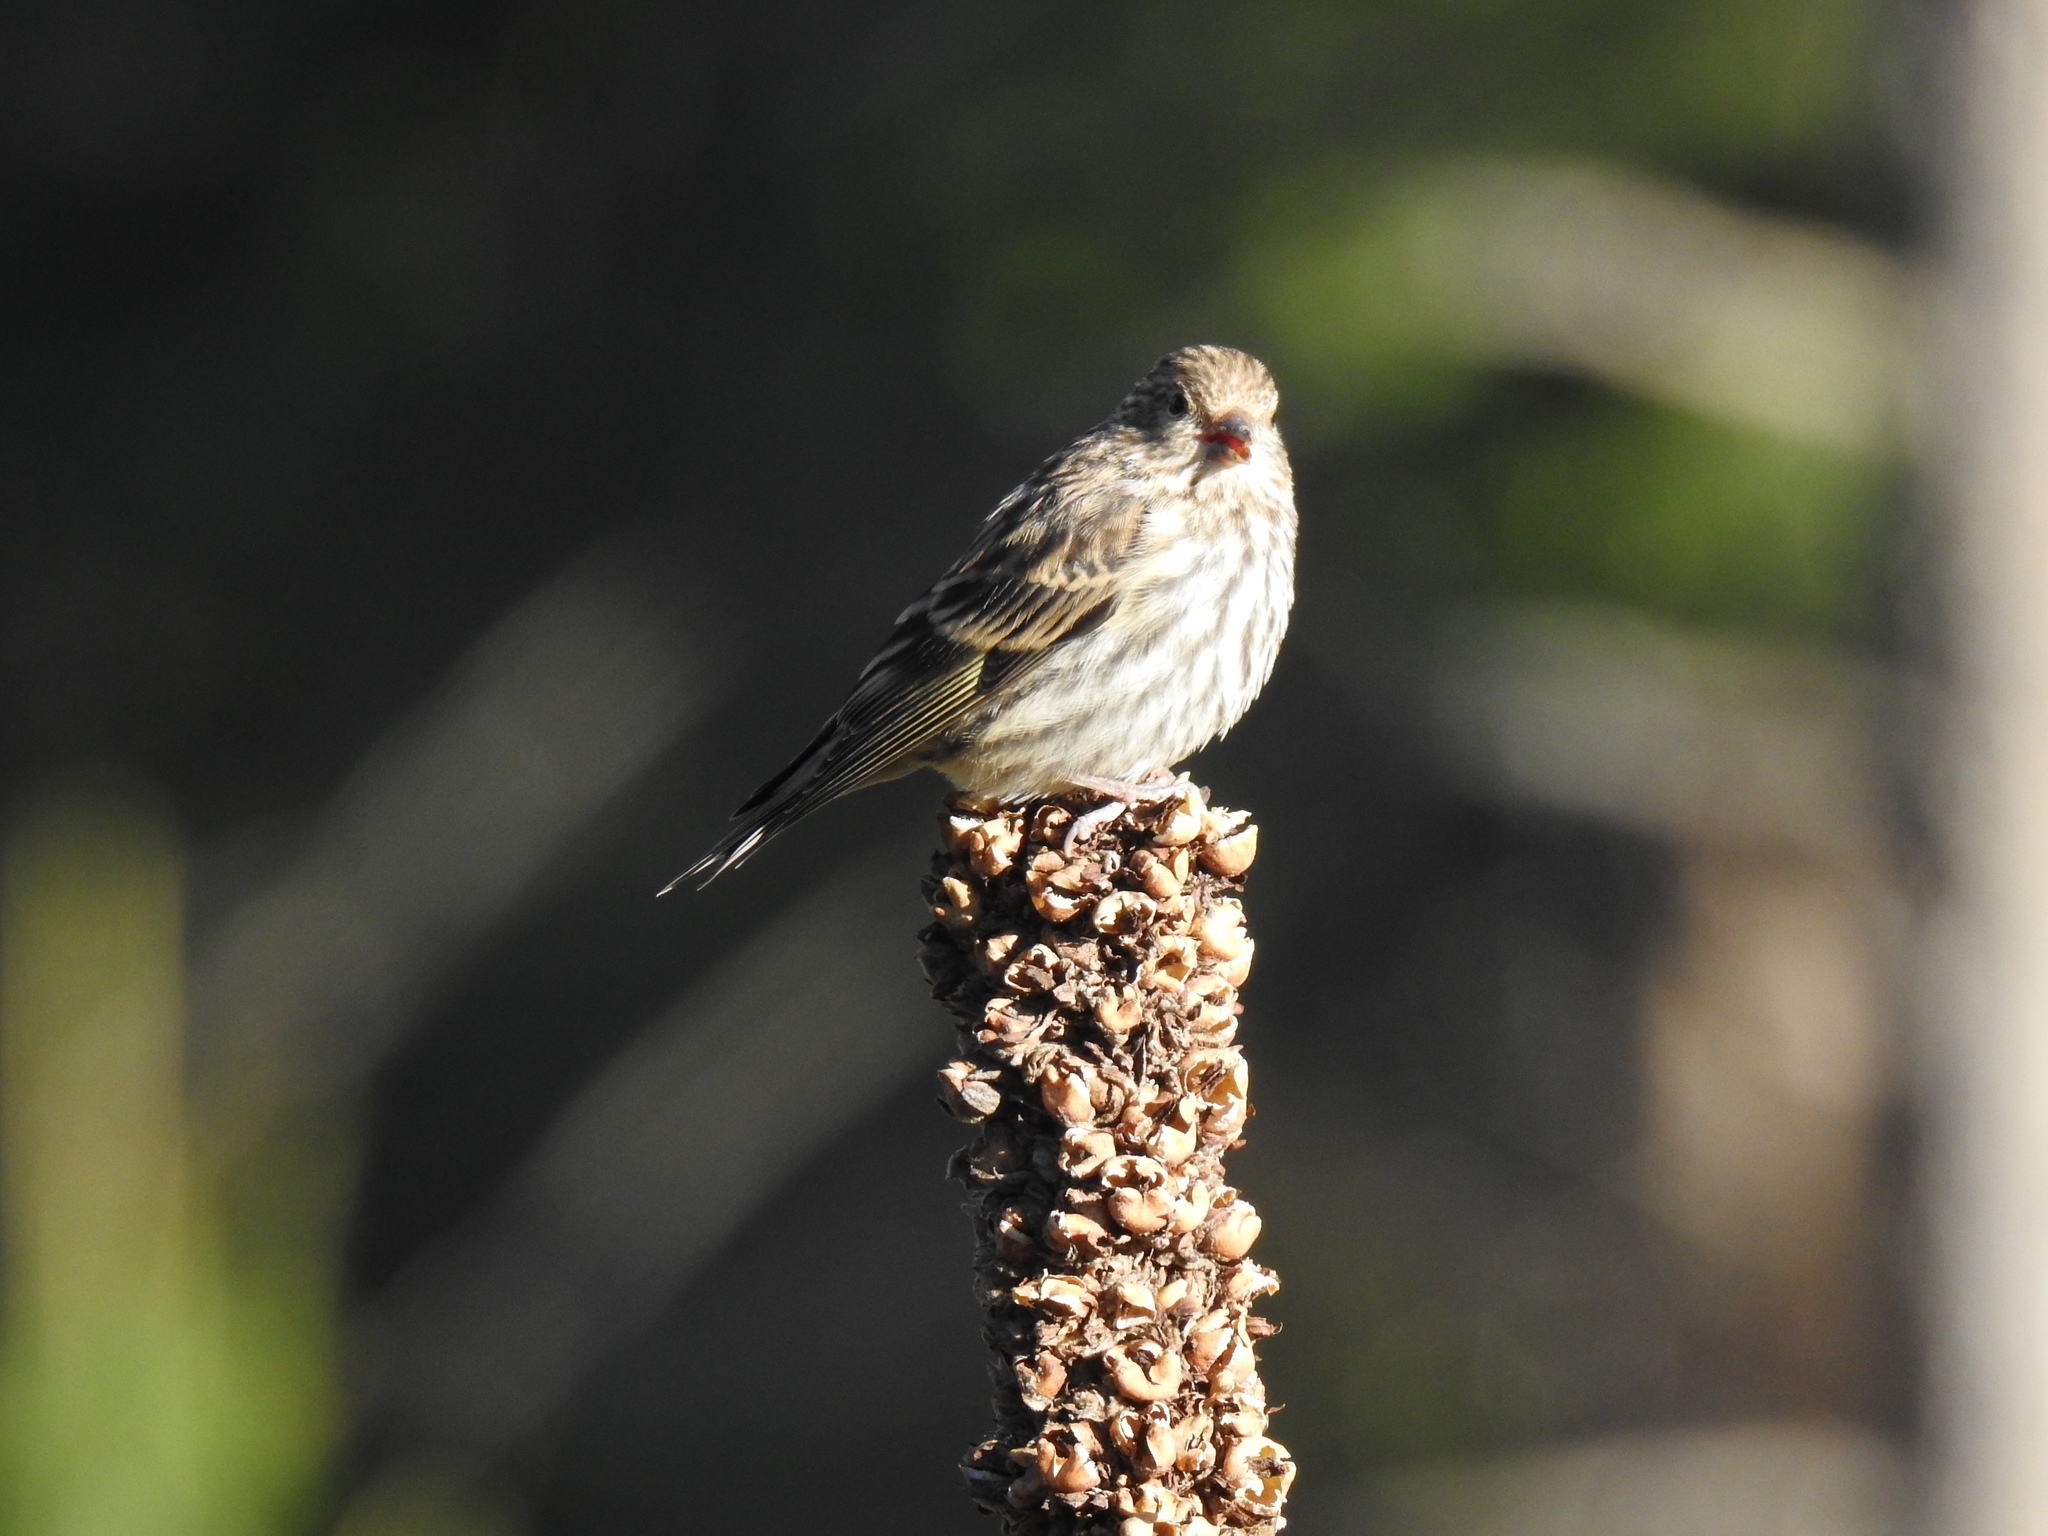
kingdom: Animalia
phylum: Chordata
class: Aves
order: Passeriformes
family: Fringillidae
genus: Spinus
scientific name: Spinus pinus
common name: Pine siskin
